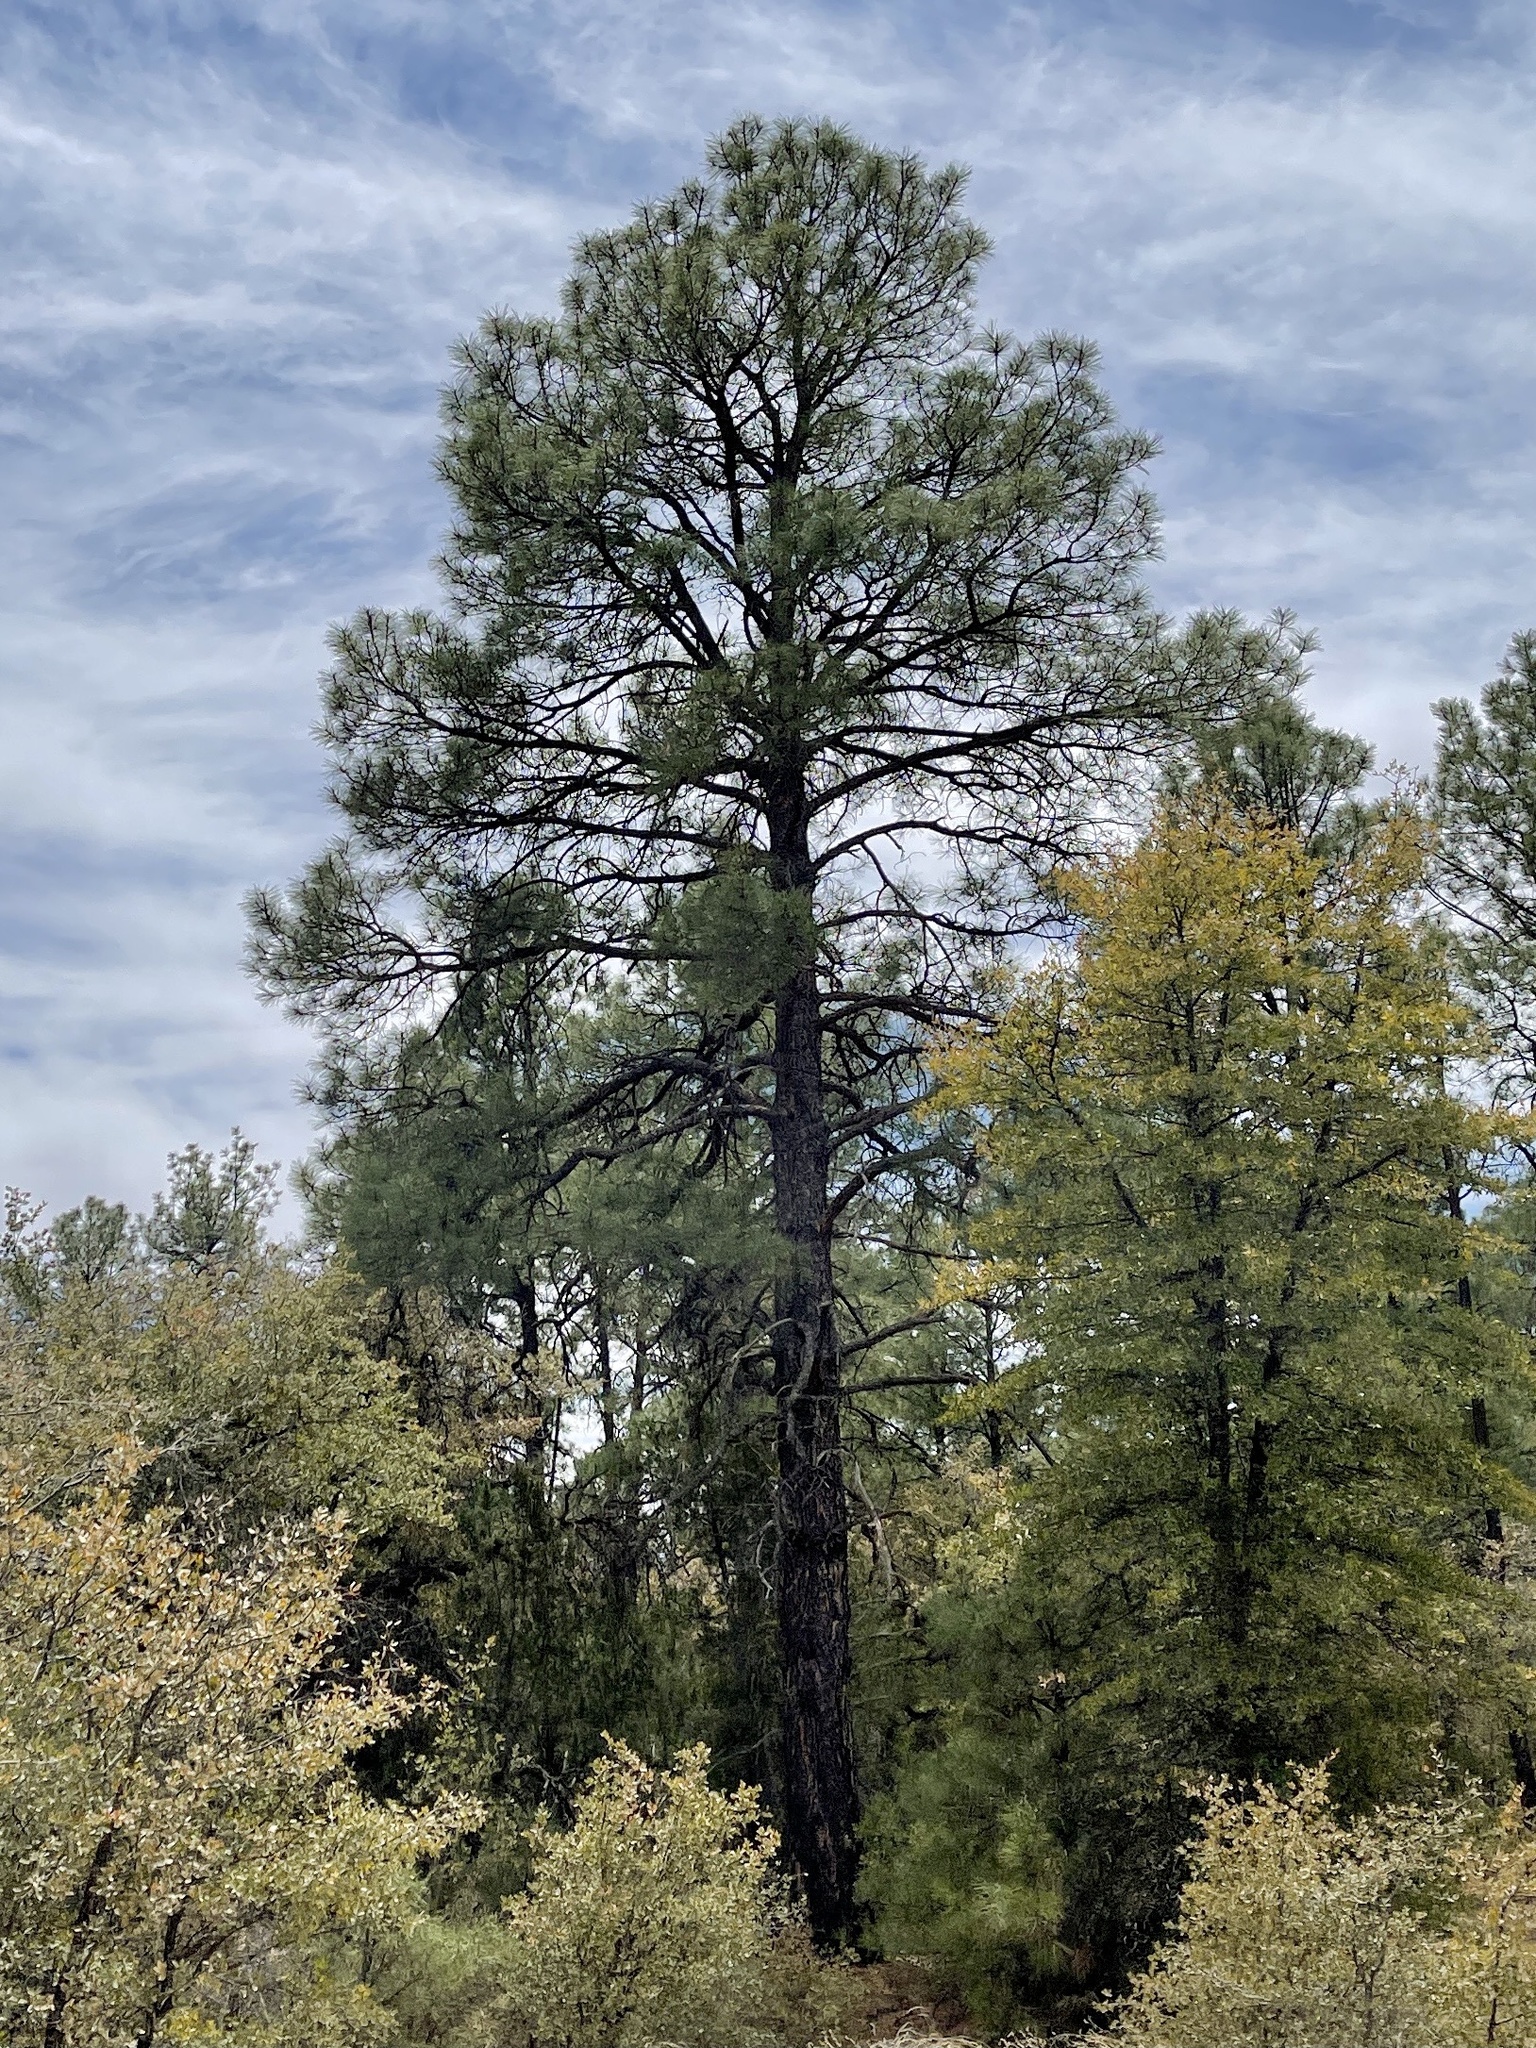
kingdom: Plantae
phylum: Tracheophyta
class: Pinopsida
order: Pinales
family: Pinaceae
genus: Pinus
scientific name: Pinus ponderosa
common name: Western yellow-pine
